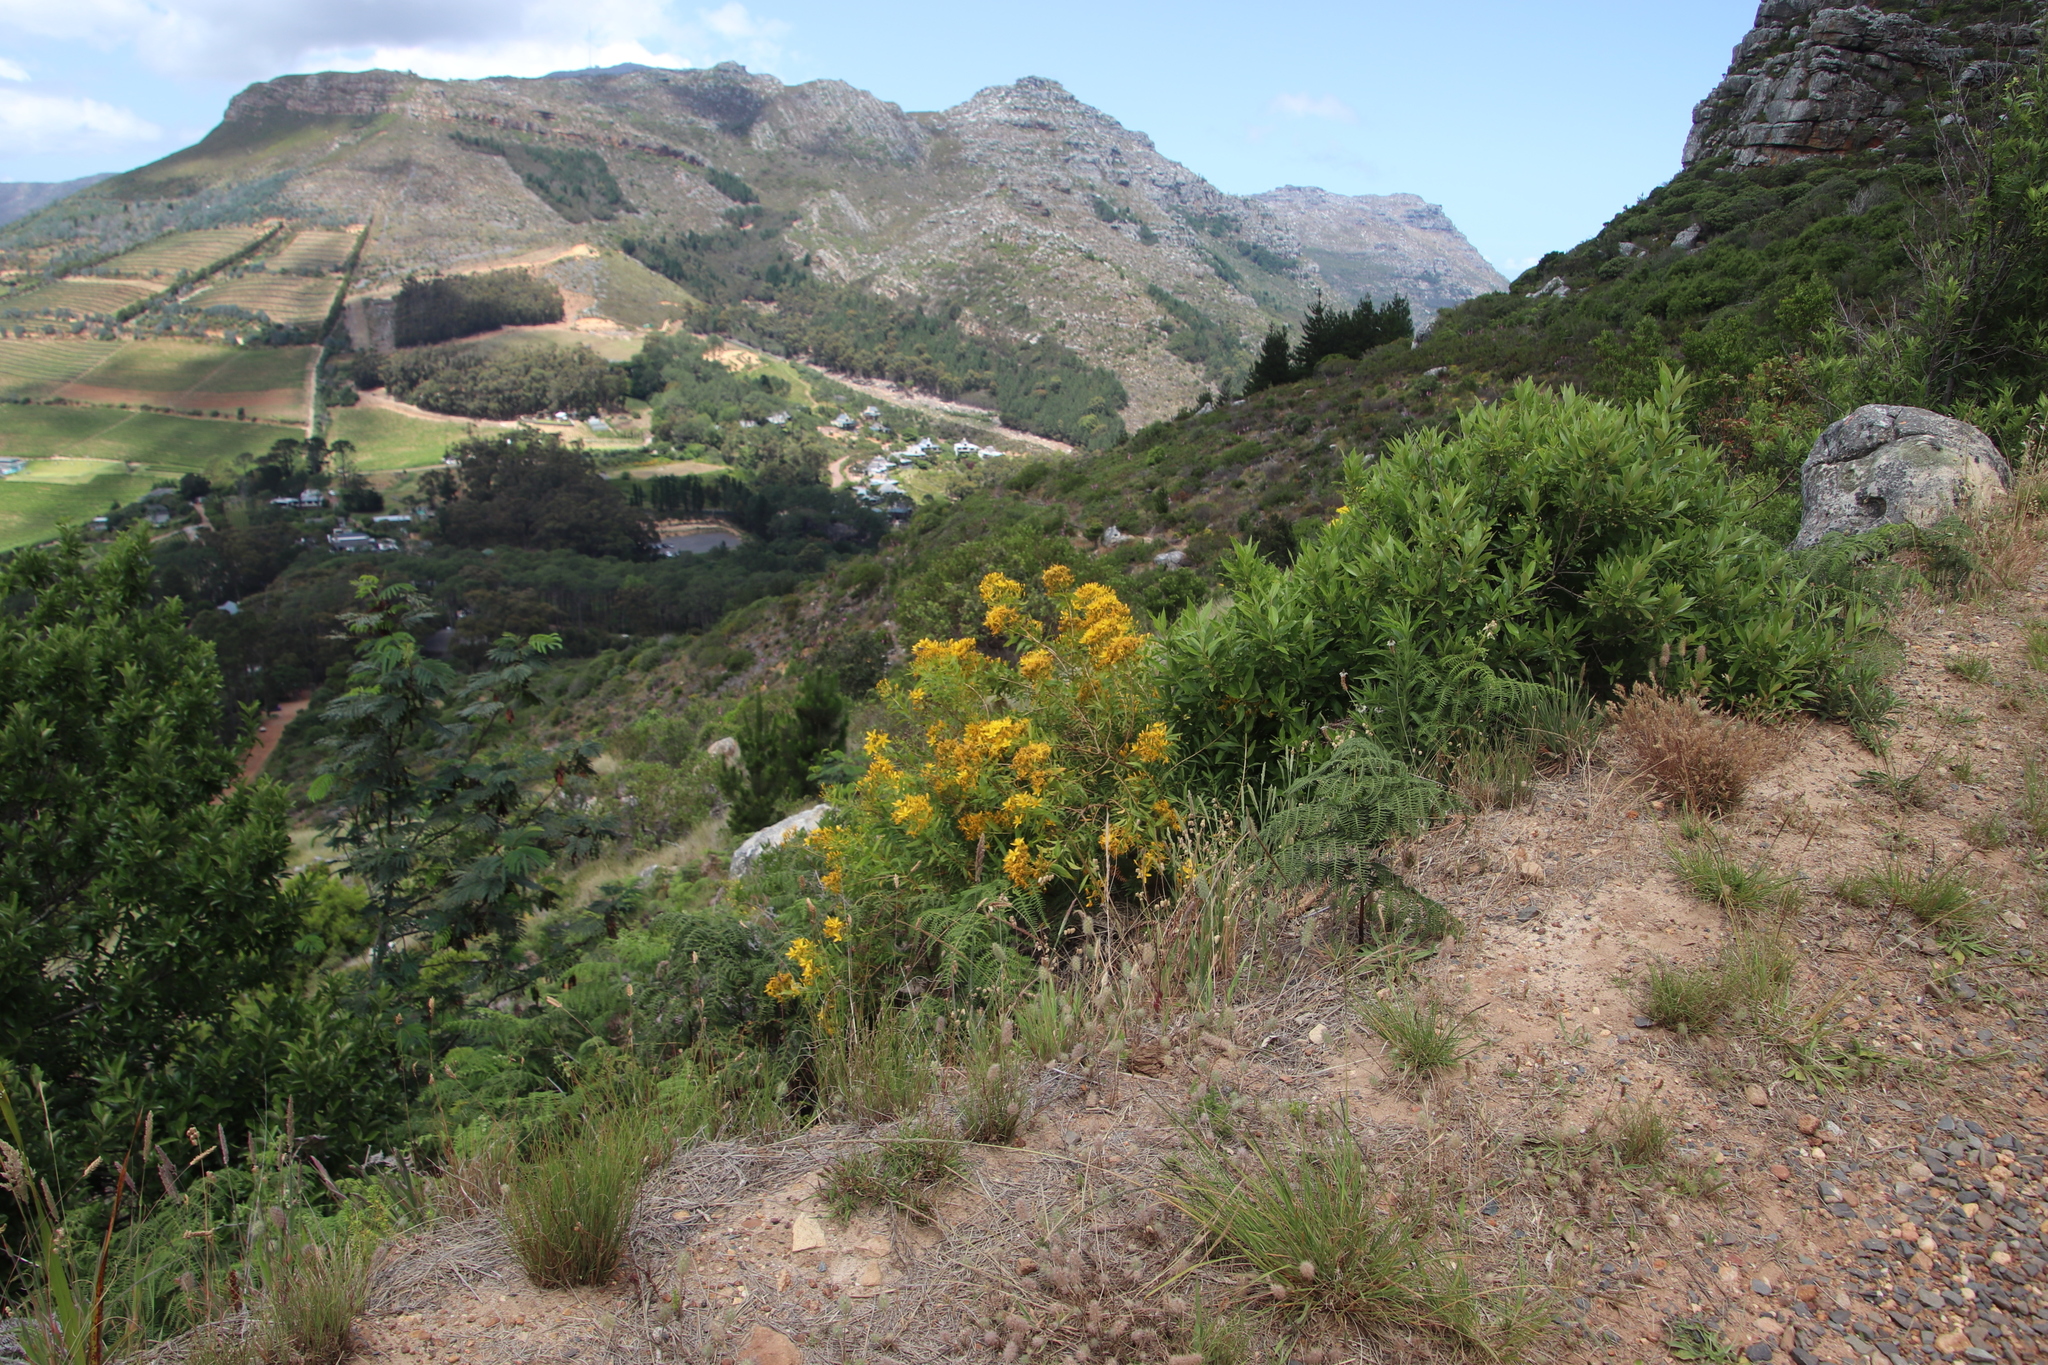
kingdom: Plantae
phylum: Tracheophyta
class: Magnoliopsida
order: Malpighiales
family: Hypericaceae
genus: Hypericum
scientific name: Hypericum canariense
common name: Canary island st. johnswort
